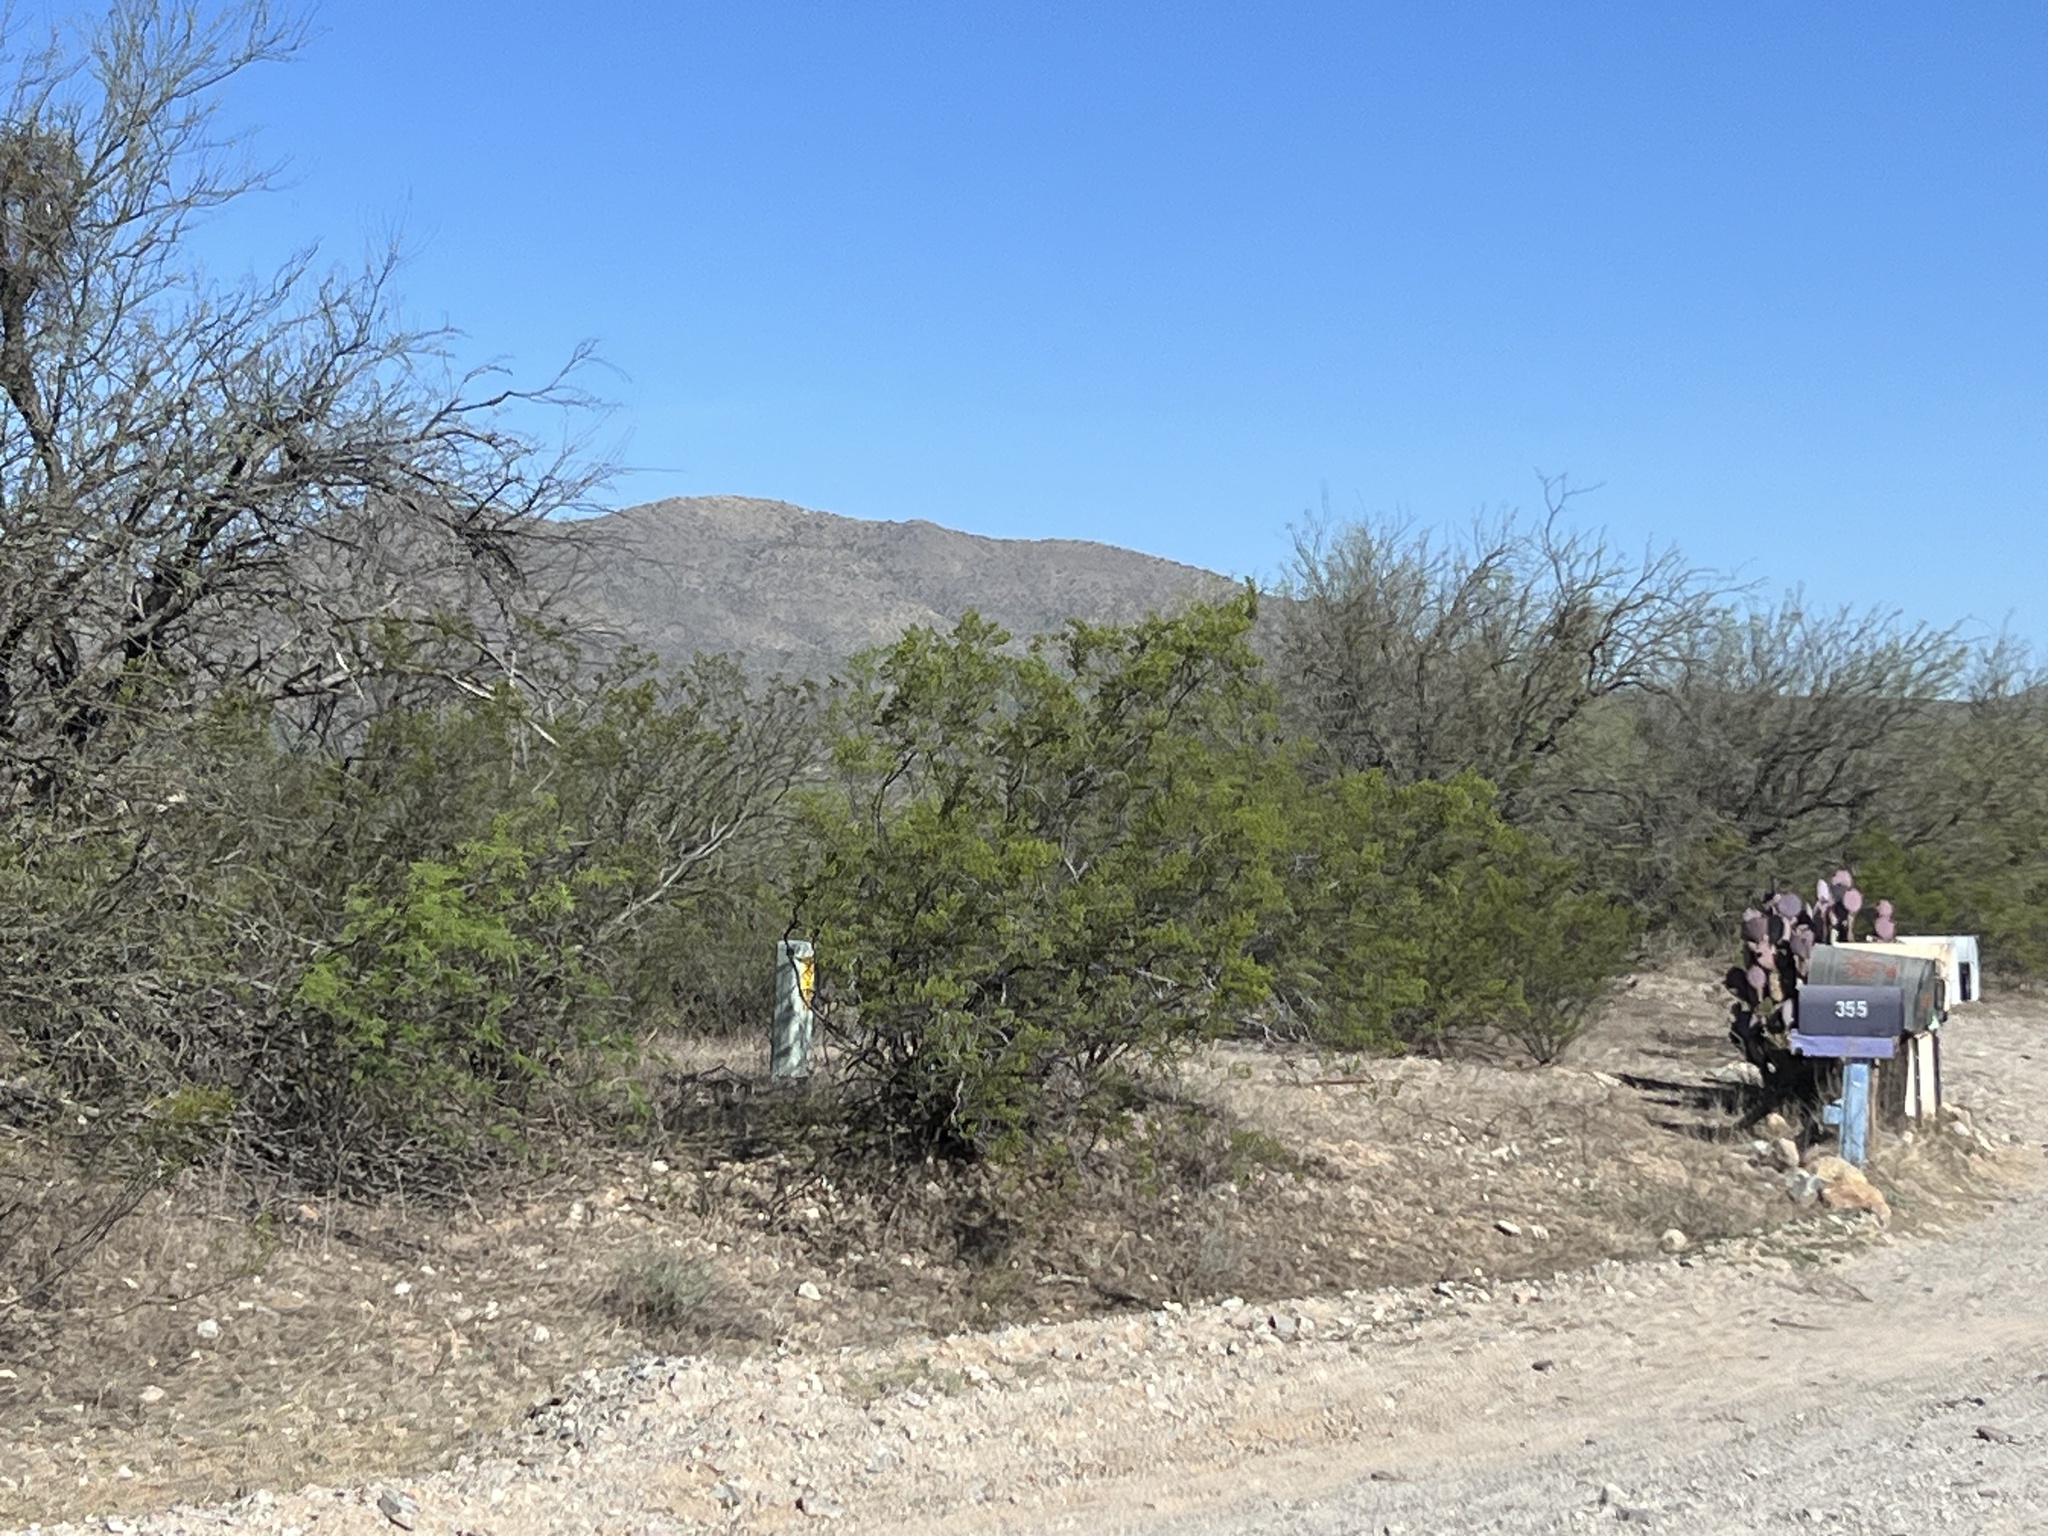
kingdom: Plantae
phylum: Tracheophyta
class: Magnoliopsida
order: Zygophyllales
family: Zygophyllaceae
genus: Larrea
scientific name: Larrea tridentata
